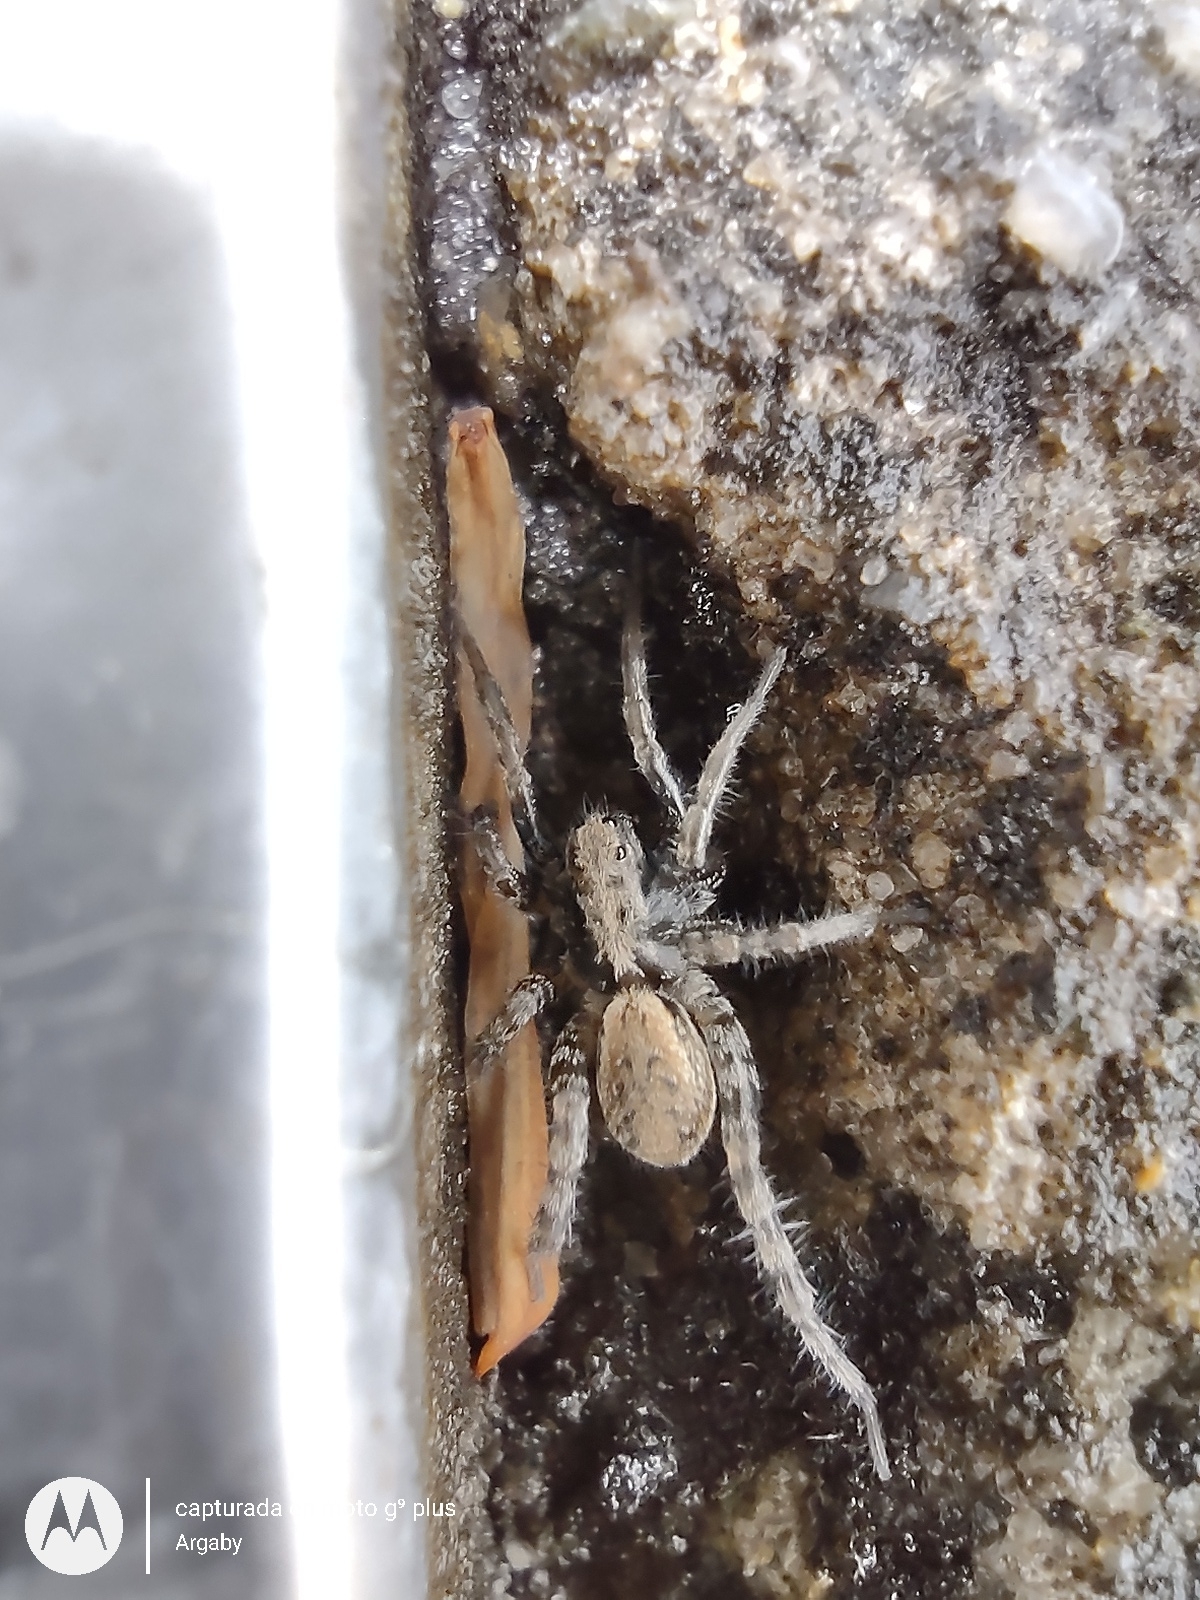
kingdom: Animalia
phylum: Arthropoda
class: Arachnida
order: Araneae
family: Lycosidae
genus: Abaycosa
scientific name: Abaycosa nanica
